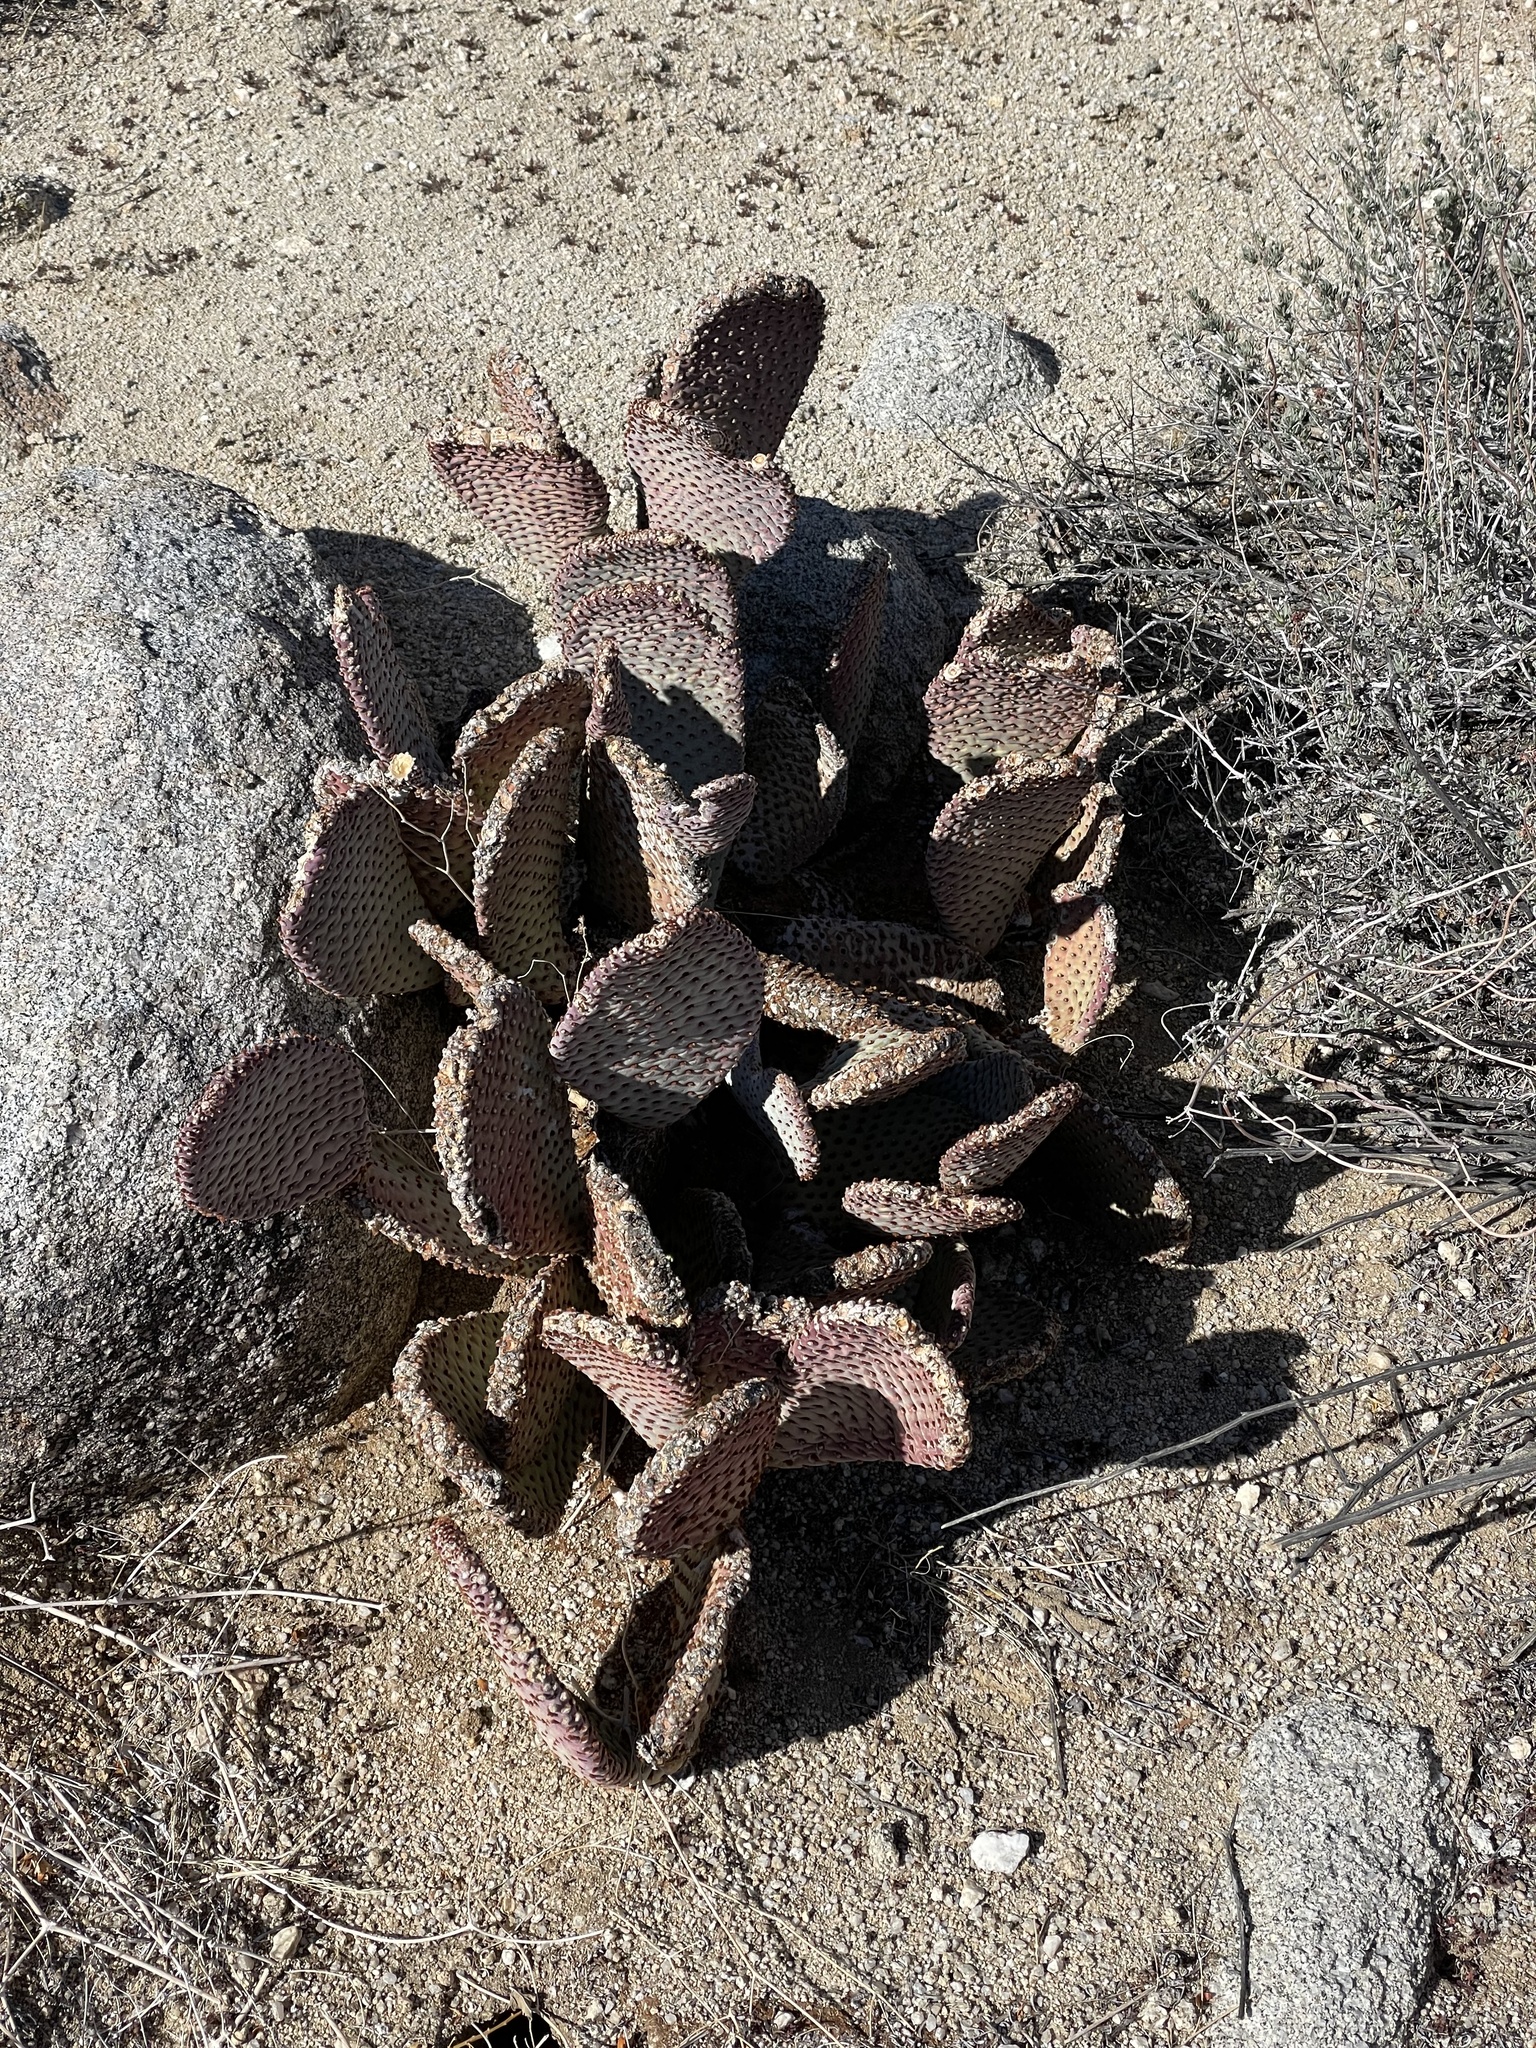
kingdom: Plantae
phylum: Tracheophyta
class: Magnoliopsida
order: Caryophyllales
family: Cactaceae
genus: Opuntia
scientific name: Opuntia basilaris
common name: Beavertail prickly-pear
